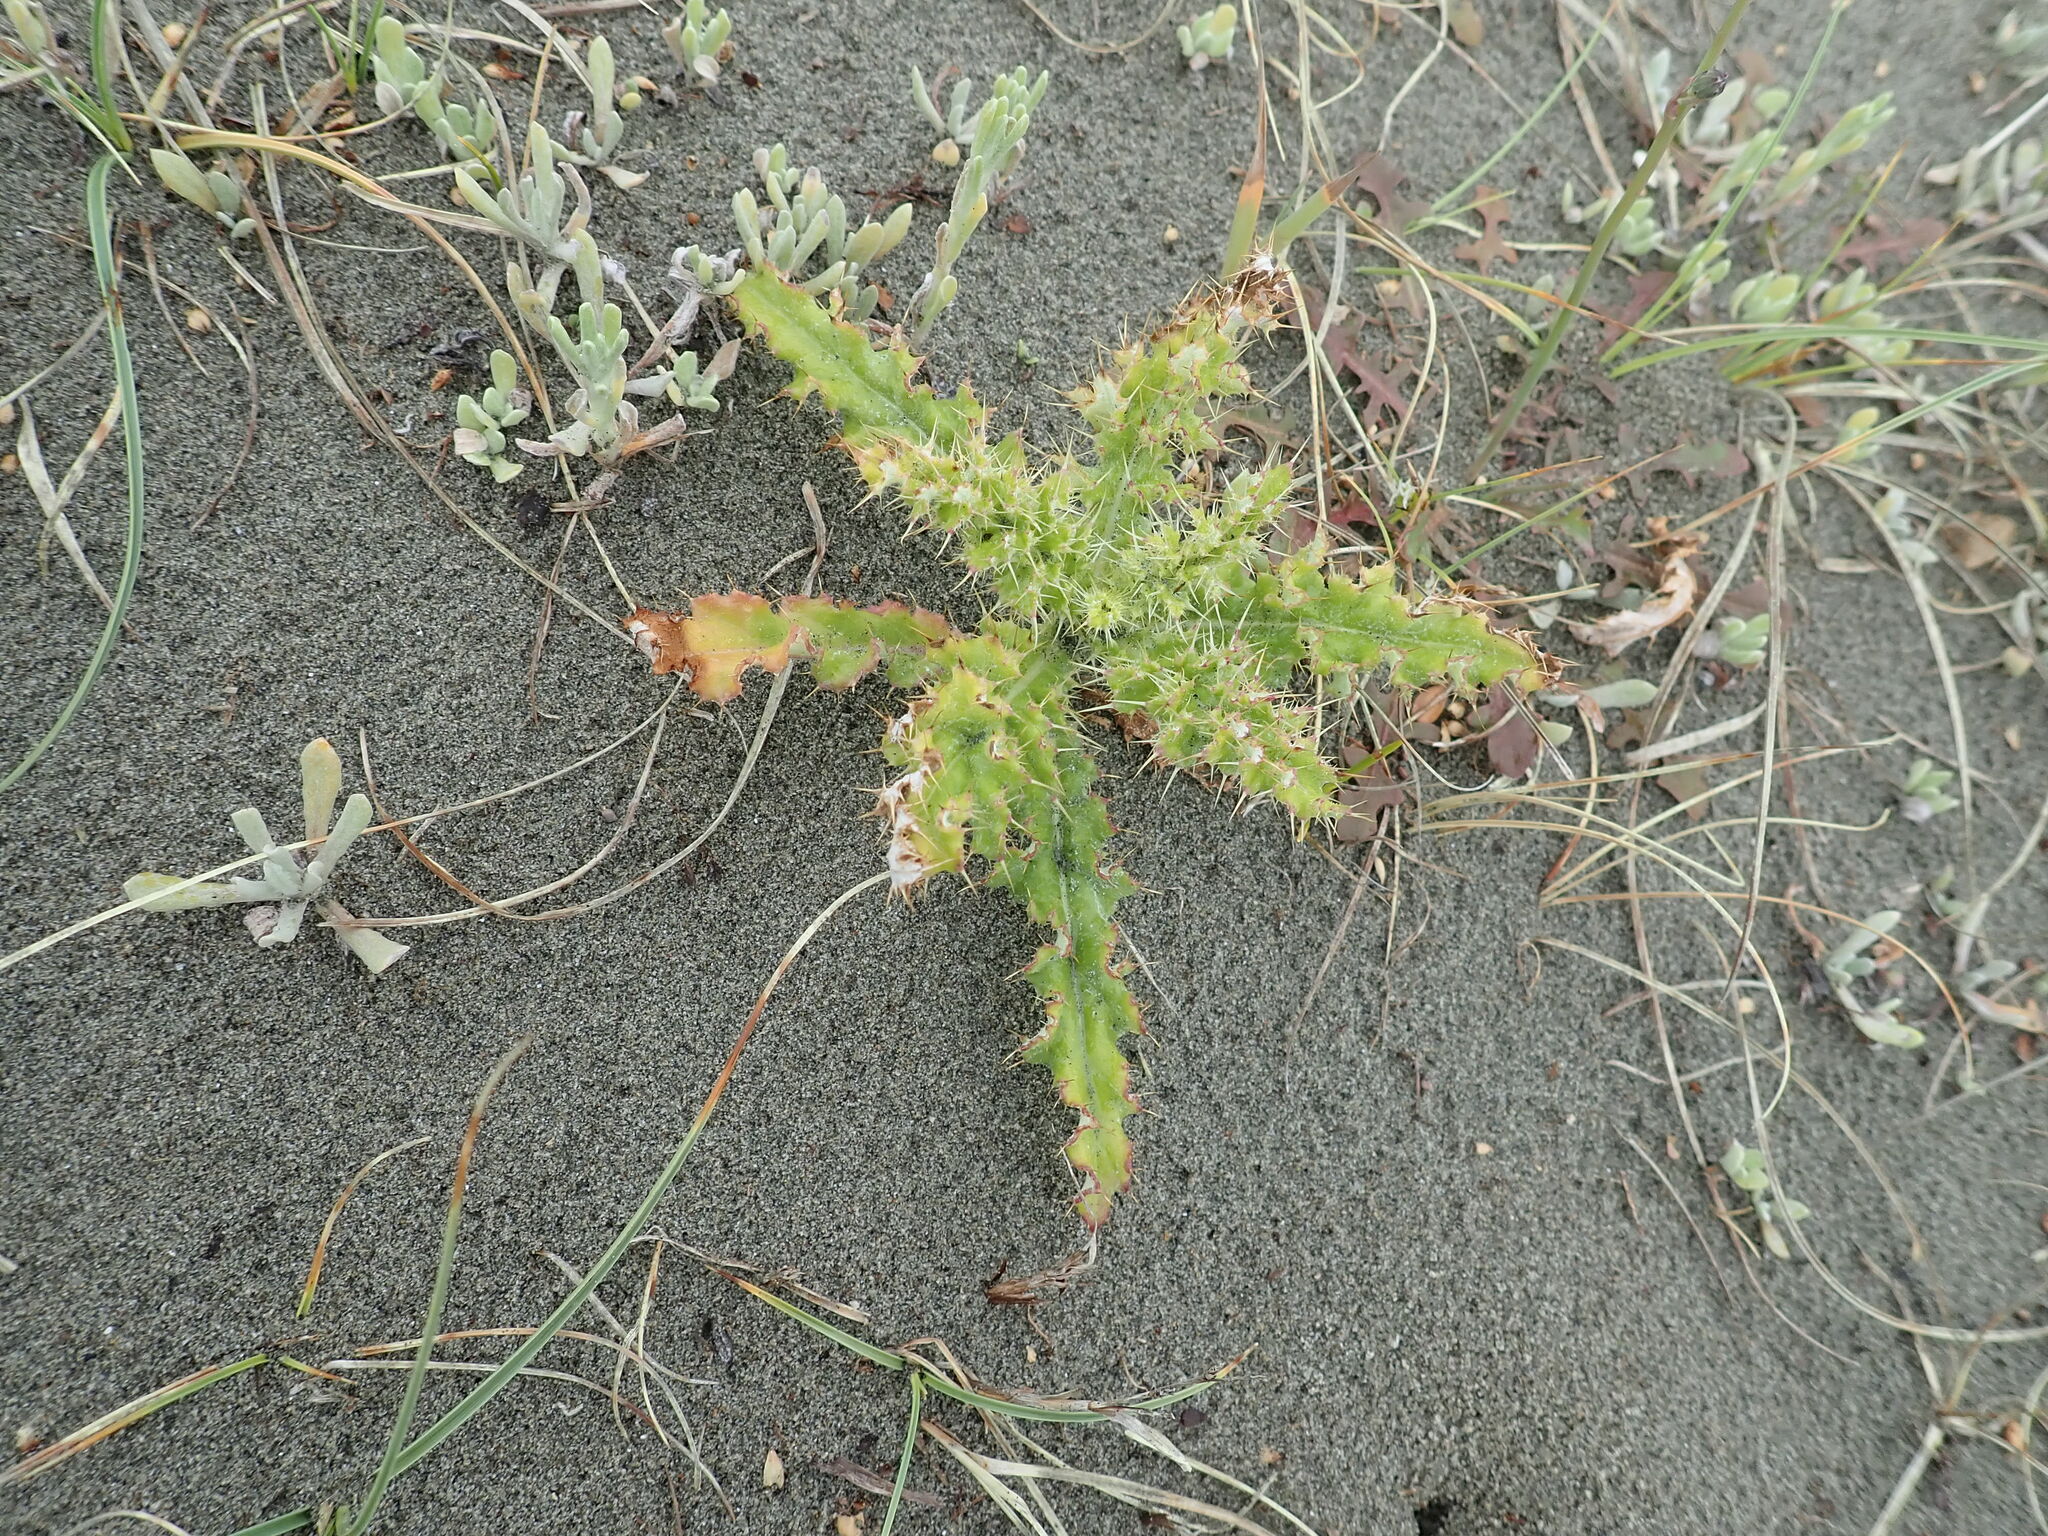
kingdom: Plantae
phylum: Tracheophyta
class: Magnoliopsida
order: Asterales
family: Asteraceae
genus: Cirsium
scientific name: Cirsium arvense
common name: Creeping thistle
